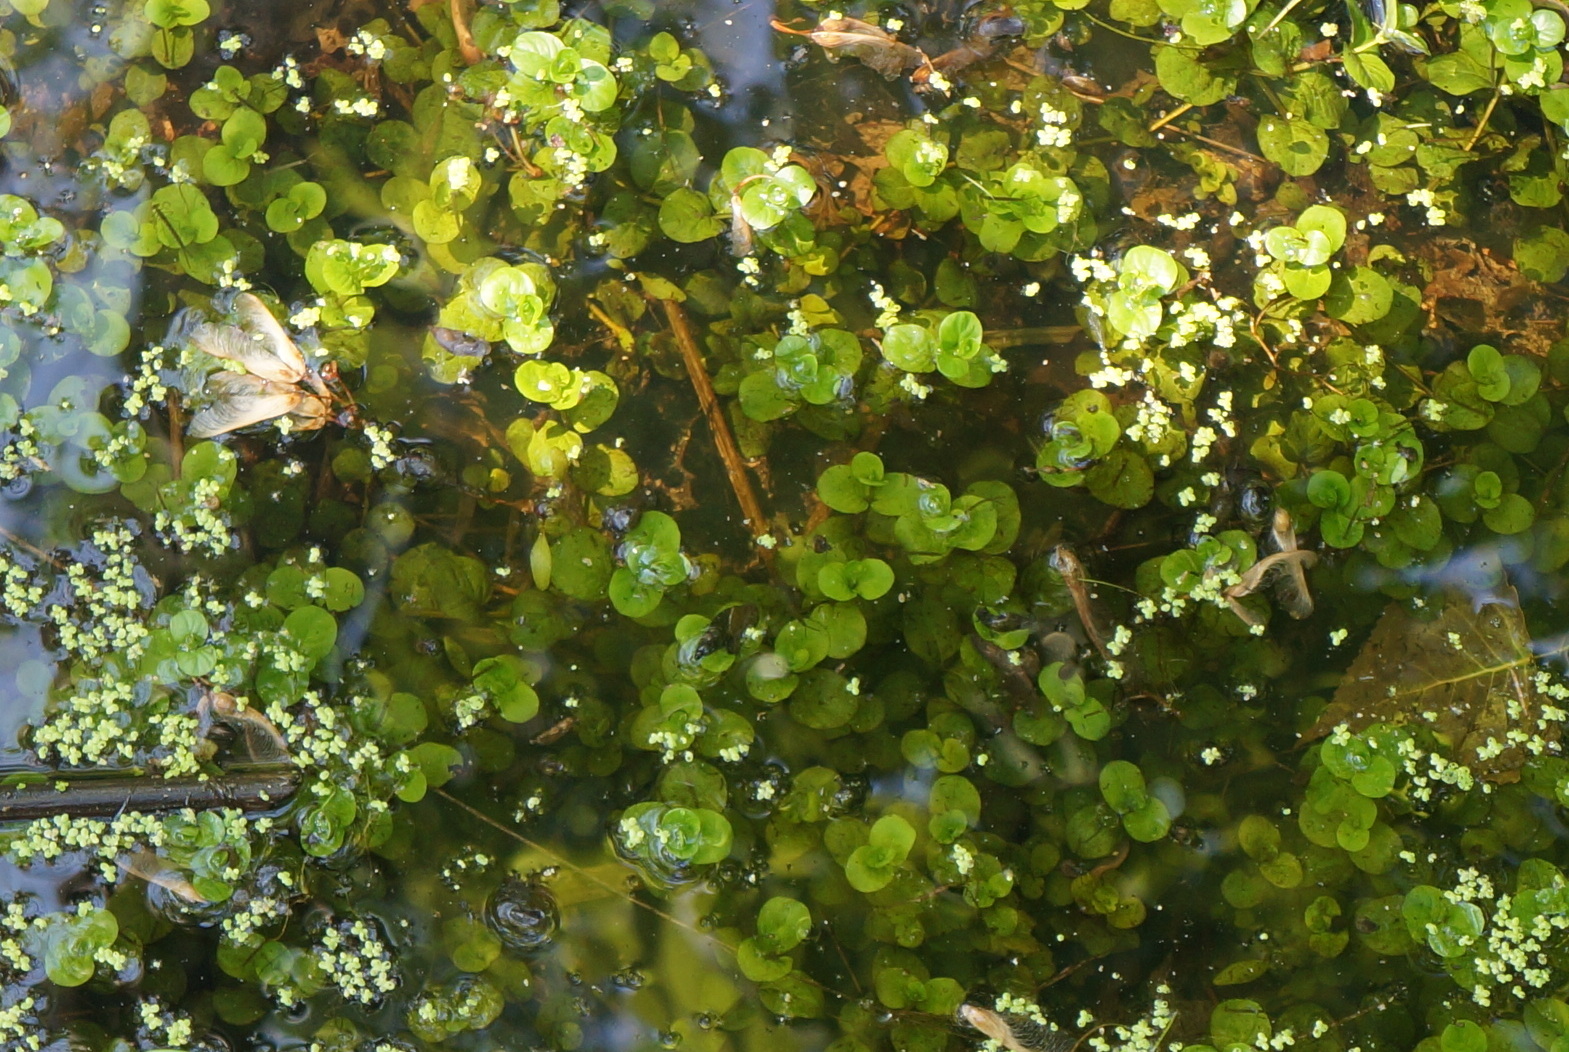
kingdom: Plantae
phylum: Tracheophyta
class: Magnoliopsida
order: Ericales
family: Primulaceae
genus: Lysimachia
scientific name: Lysimachia nummularia
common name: Moneywort
